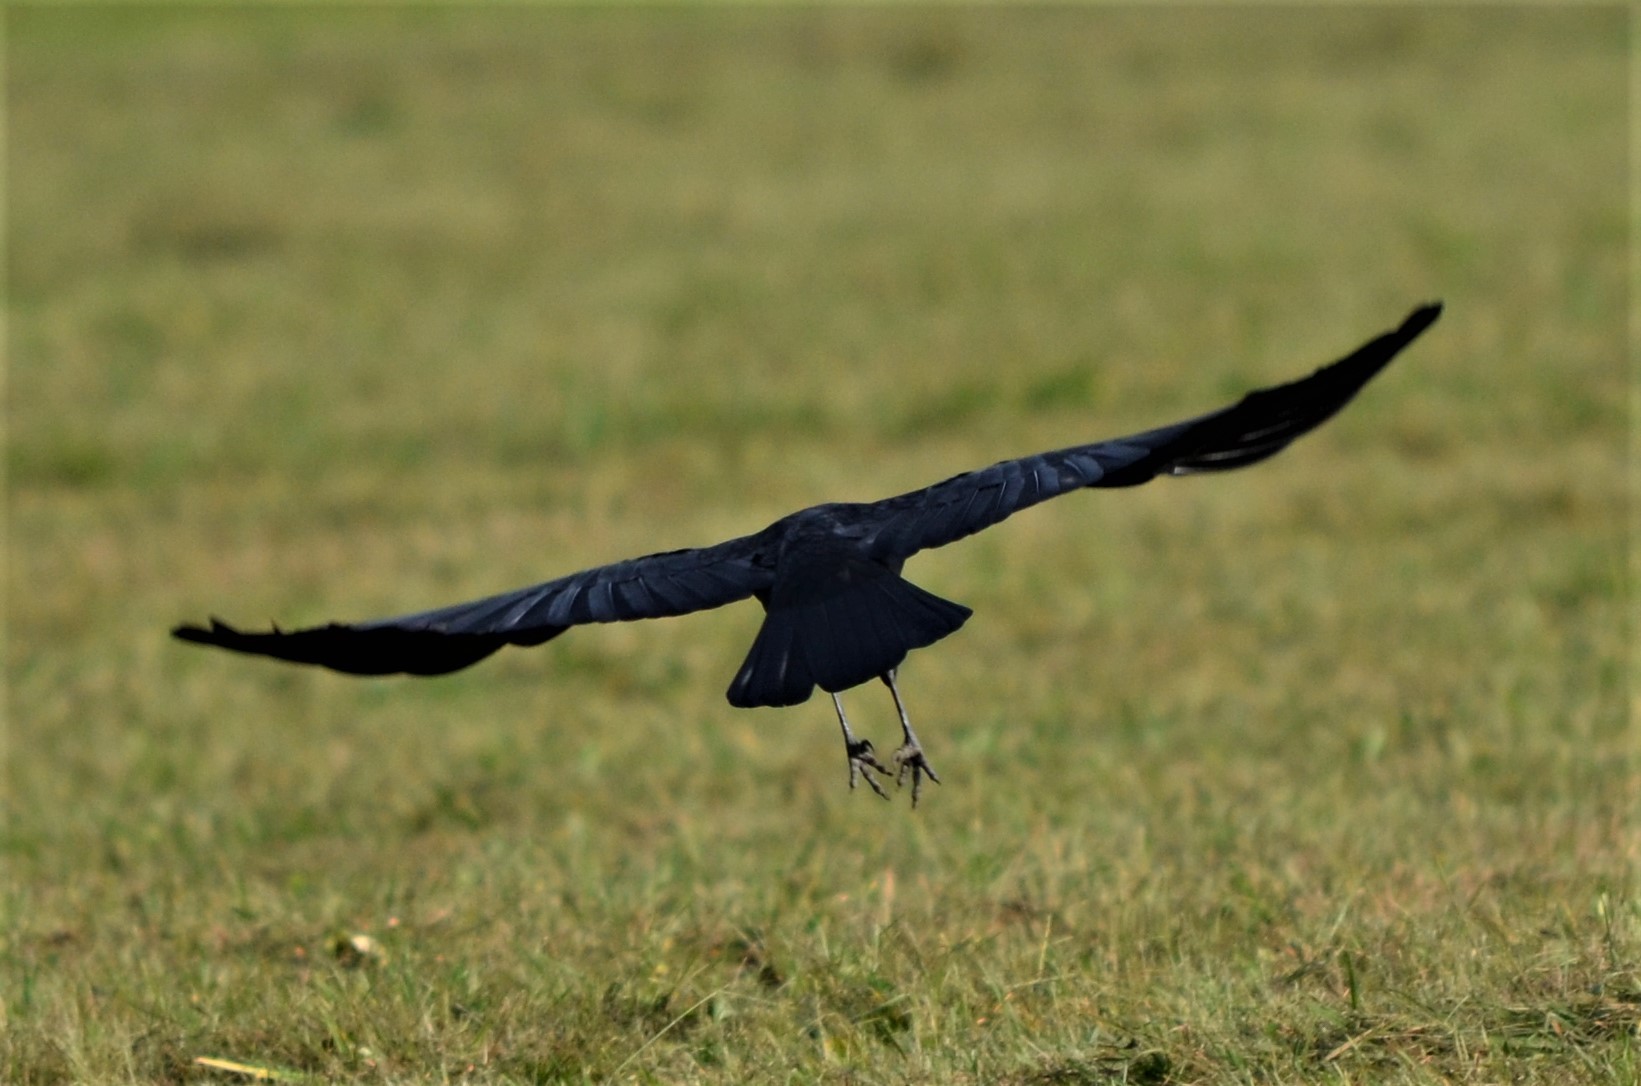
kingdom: Animalia
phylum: Chordata
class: Aves
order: Passeriformes
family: Corvidae
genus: Corvus
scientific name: Corvus corone
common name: Carrion crow
